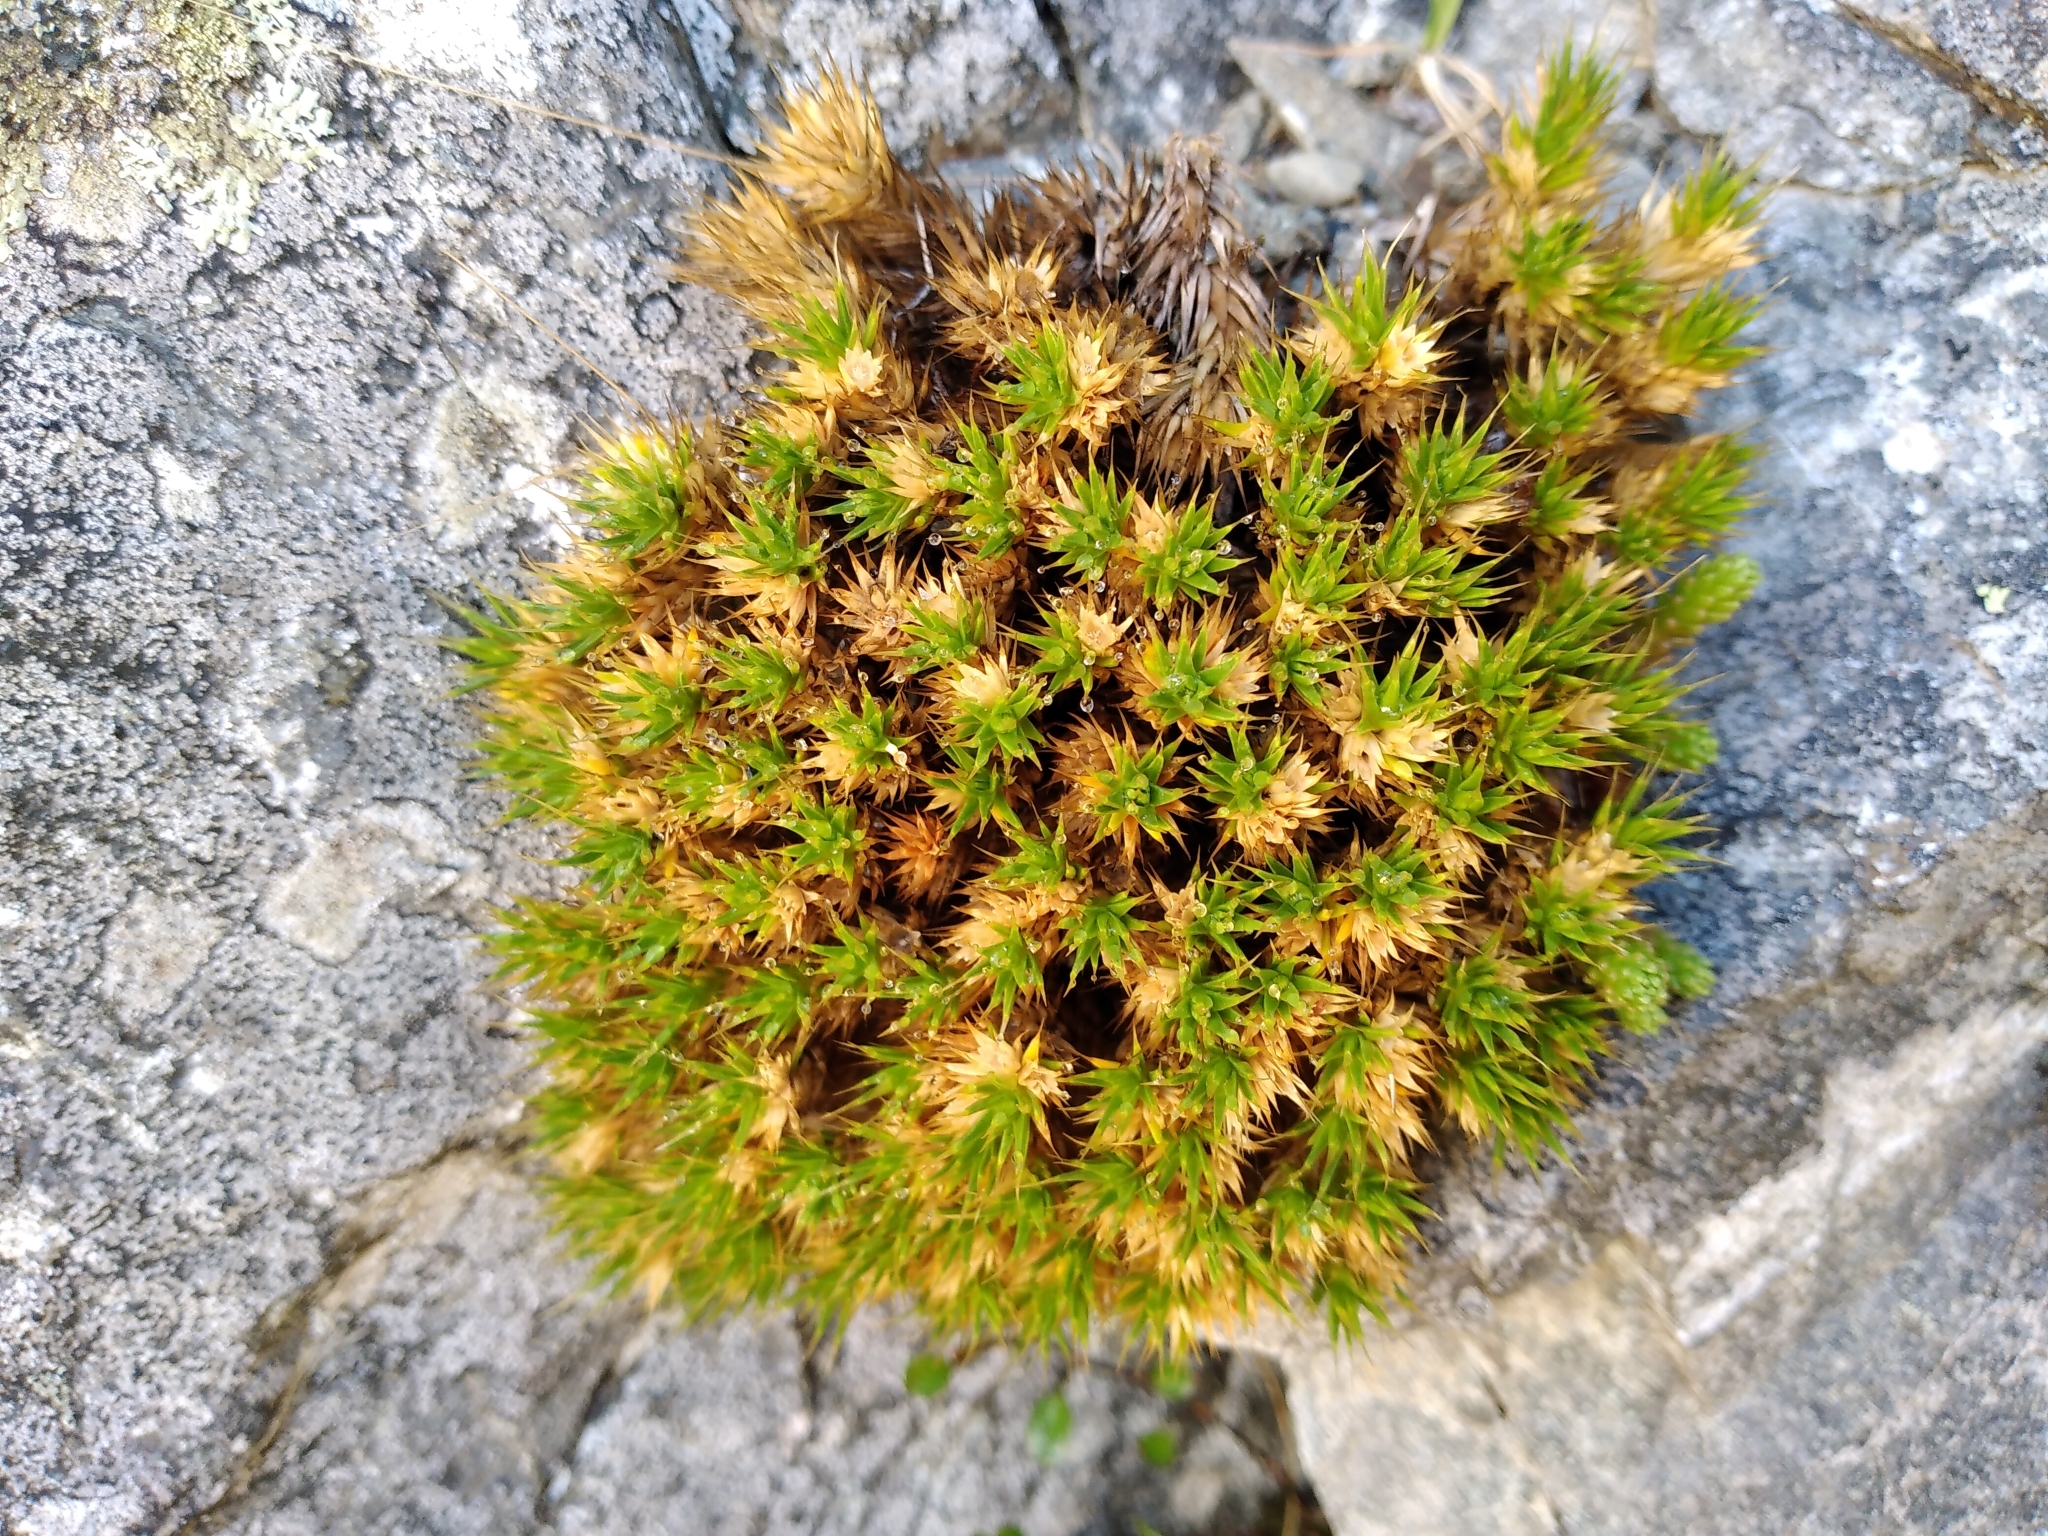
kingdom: Plantae
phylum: Tracheophyta
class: Magnoliopsida
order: Caryophyllales
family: Caryophyllaceae
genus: Colobanthus
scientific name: Colobanthus acicularis
